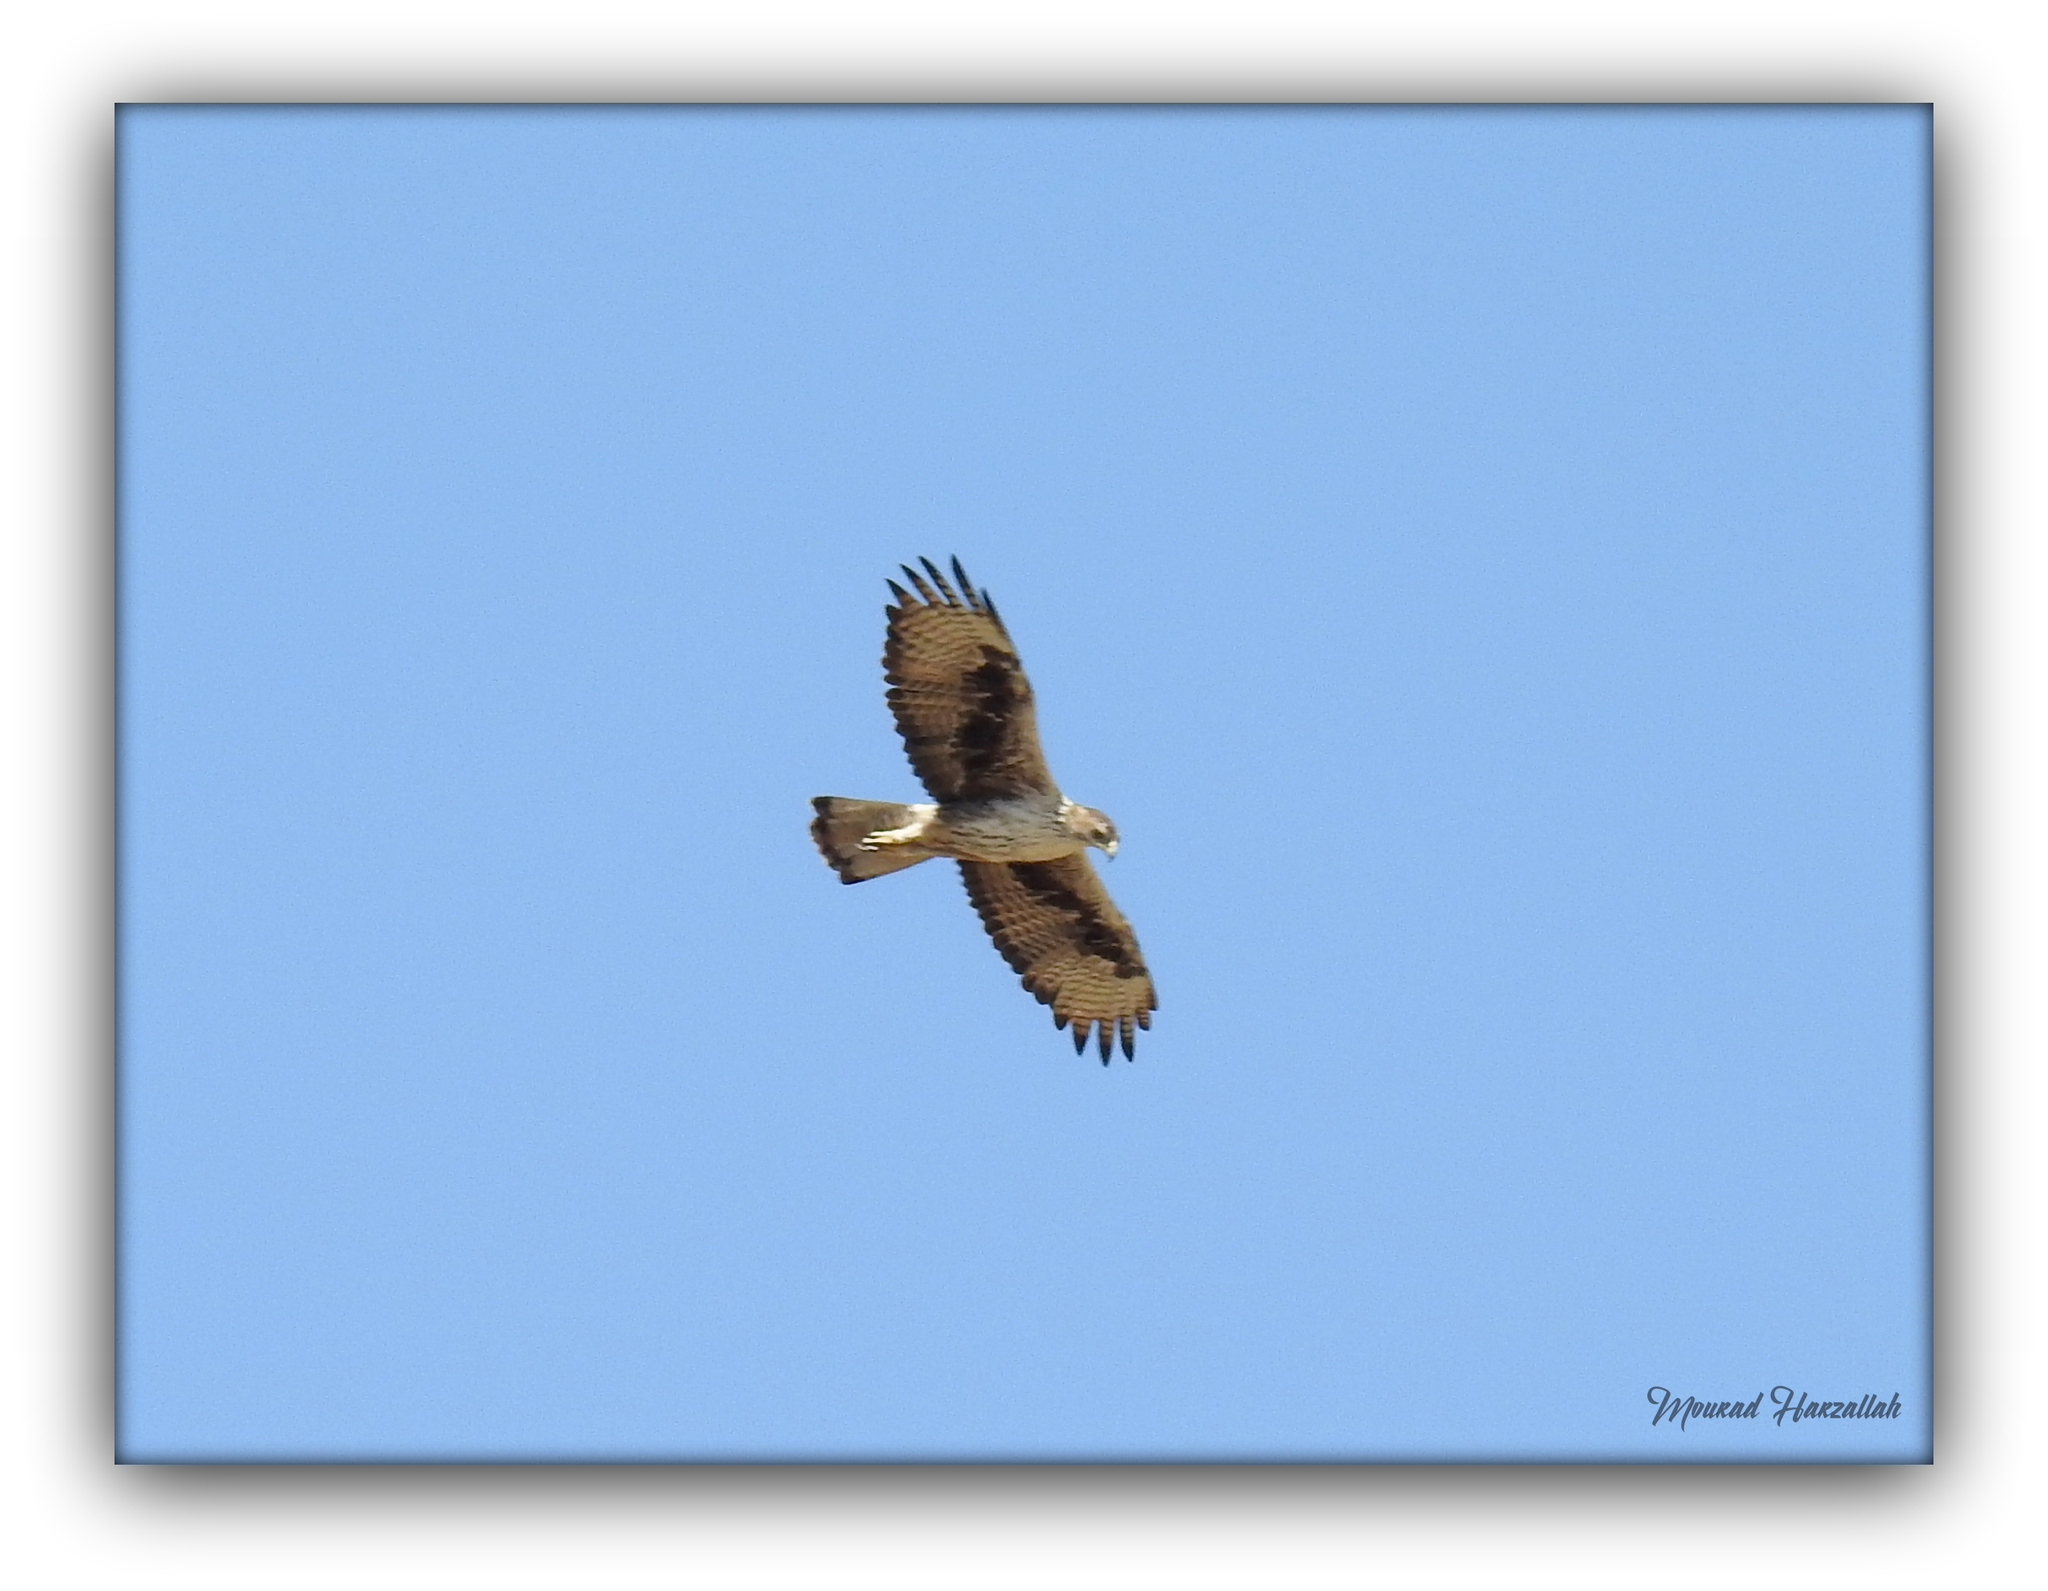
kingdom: Animalia
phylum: Chordata
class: Aves
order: Accipitriformes
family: Accipitridae
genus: Aquila
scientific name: Aquila fasciata
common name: Bonelli's eagle
